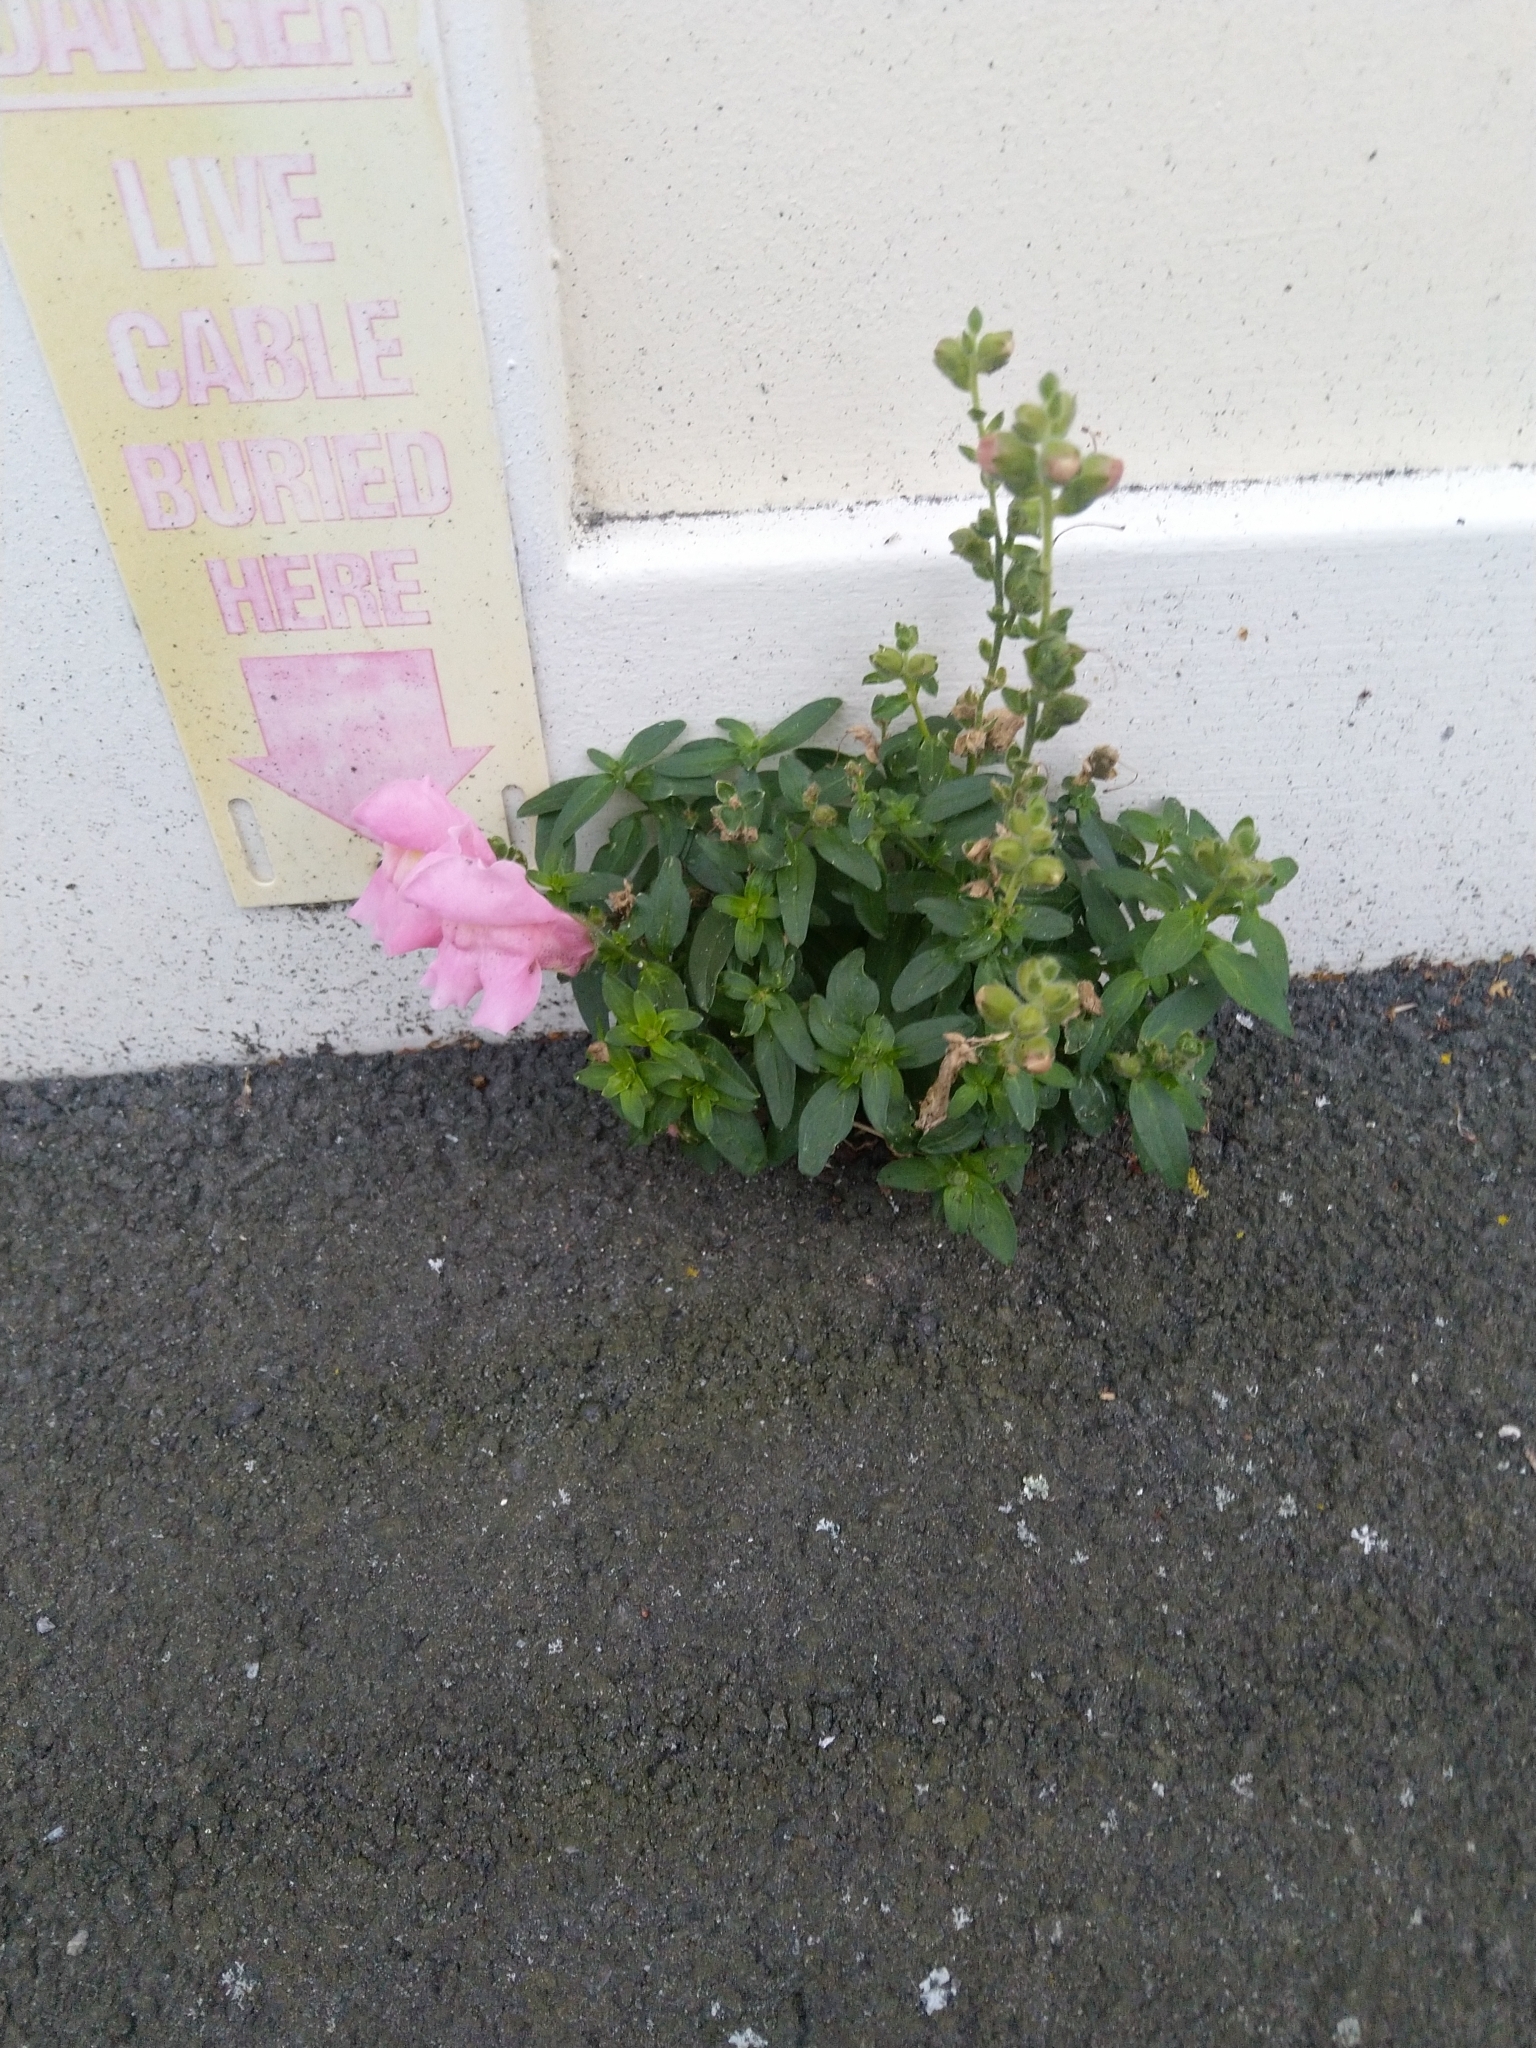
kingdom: Plantae
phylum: Tracheophyta
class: Magnoliopsida
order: Lamiales
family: Plantaginaceae
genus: Antirrhinum
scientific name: Antirrhinum majus
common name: Snapdragon
